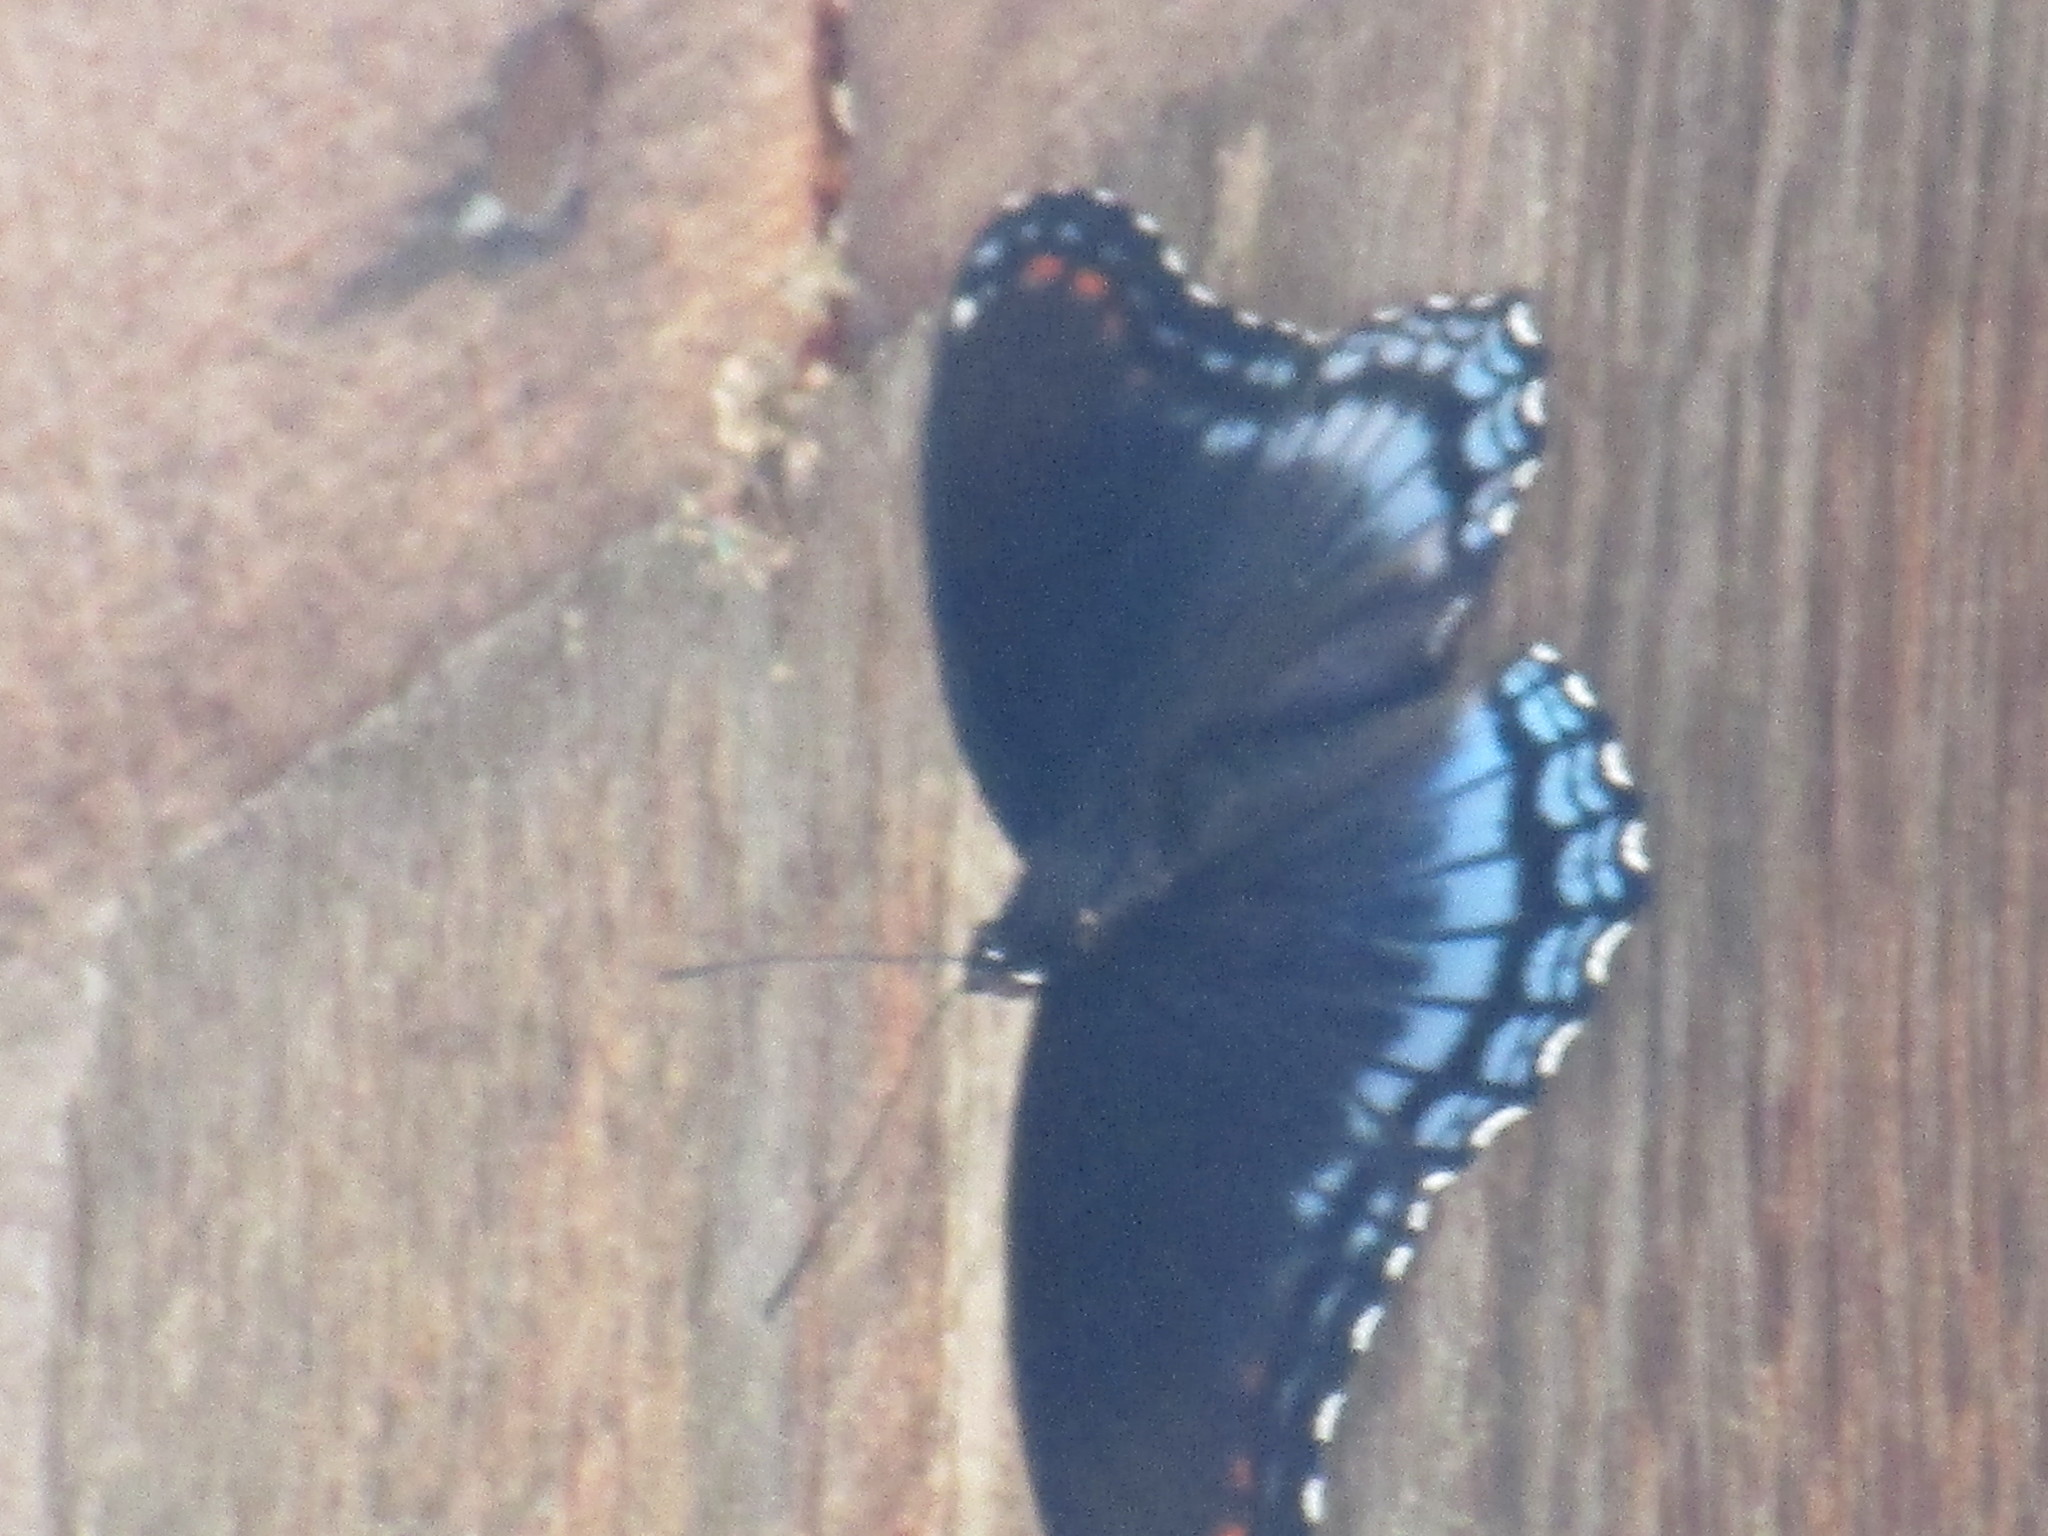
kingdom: Animalia
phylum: Arthropoda
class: Insecta
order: Lepidoptera
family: Nymphalidae
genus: Limenitis
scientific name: Limenitis arthemis
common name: Red-spotted admiral
